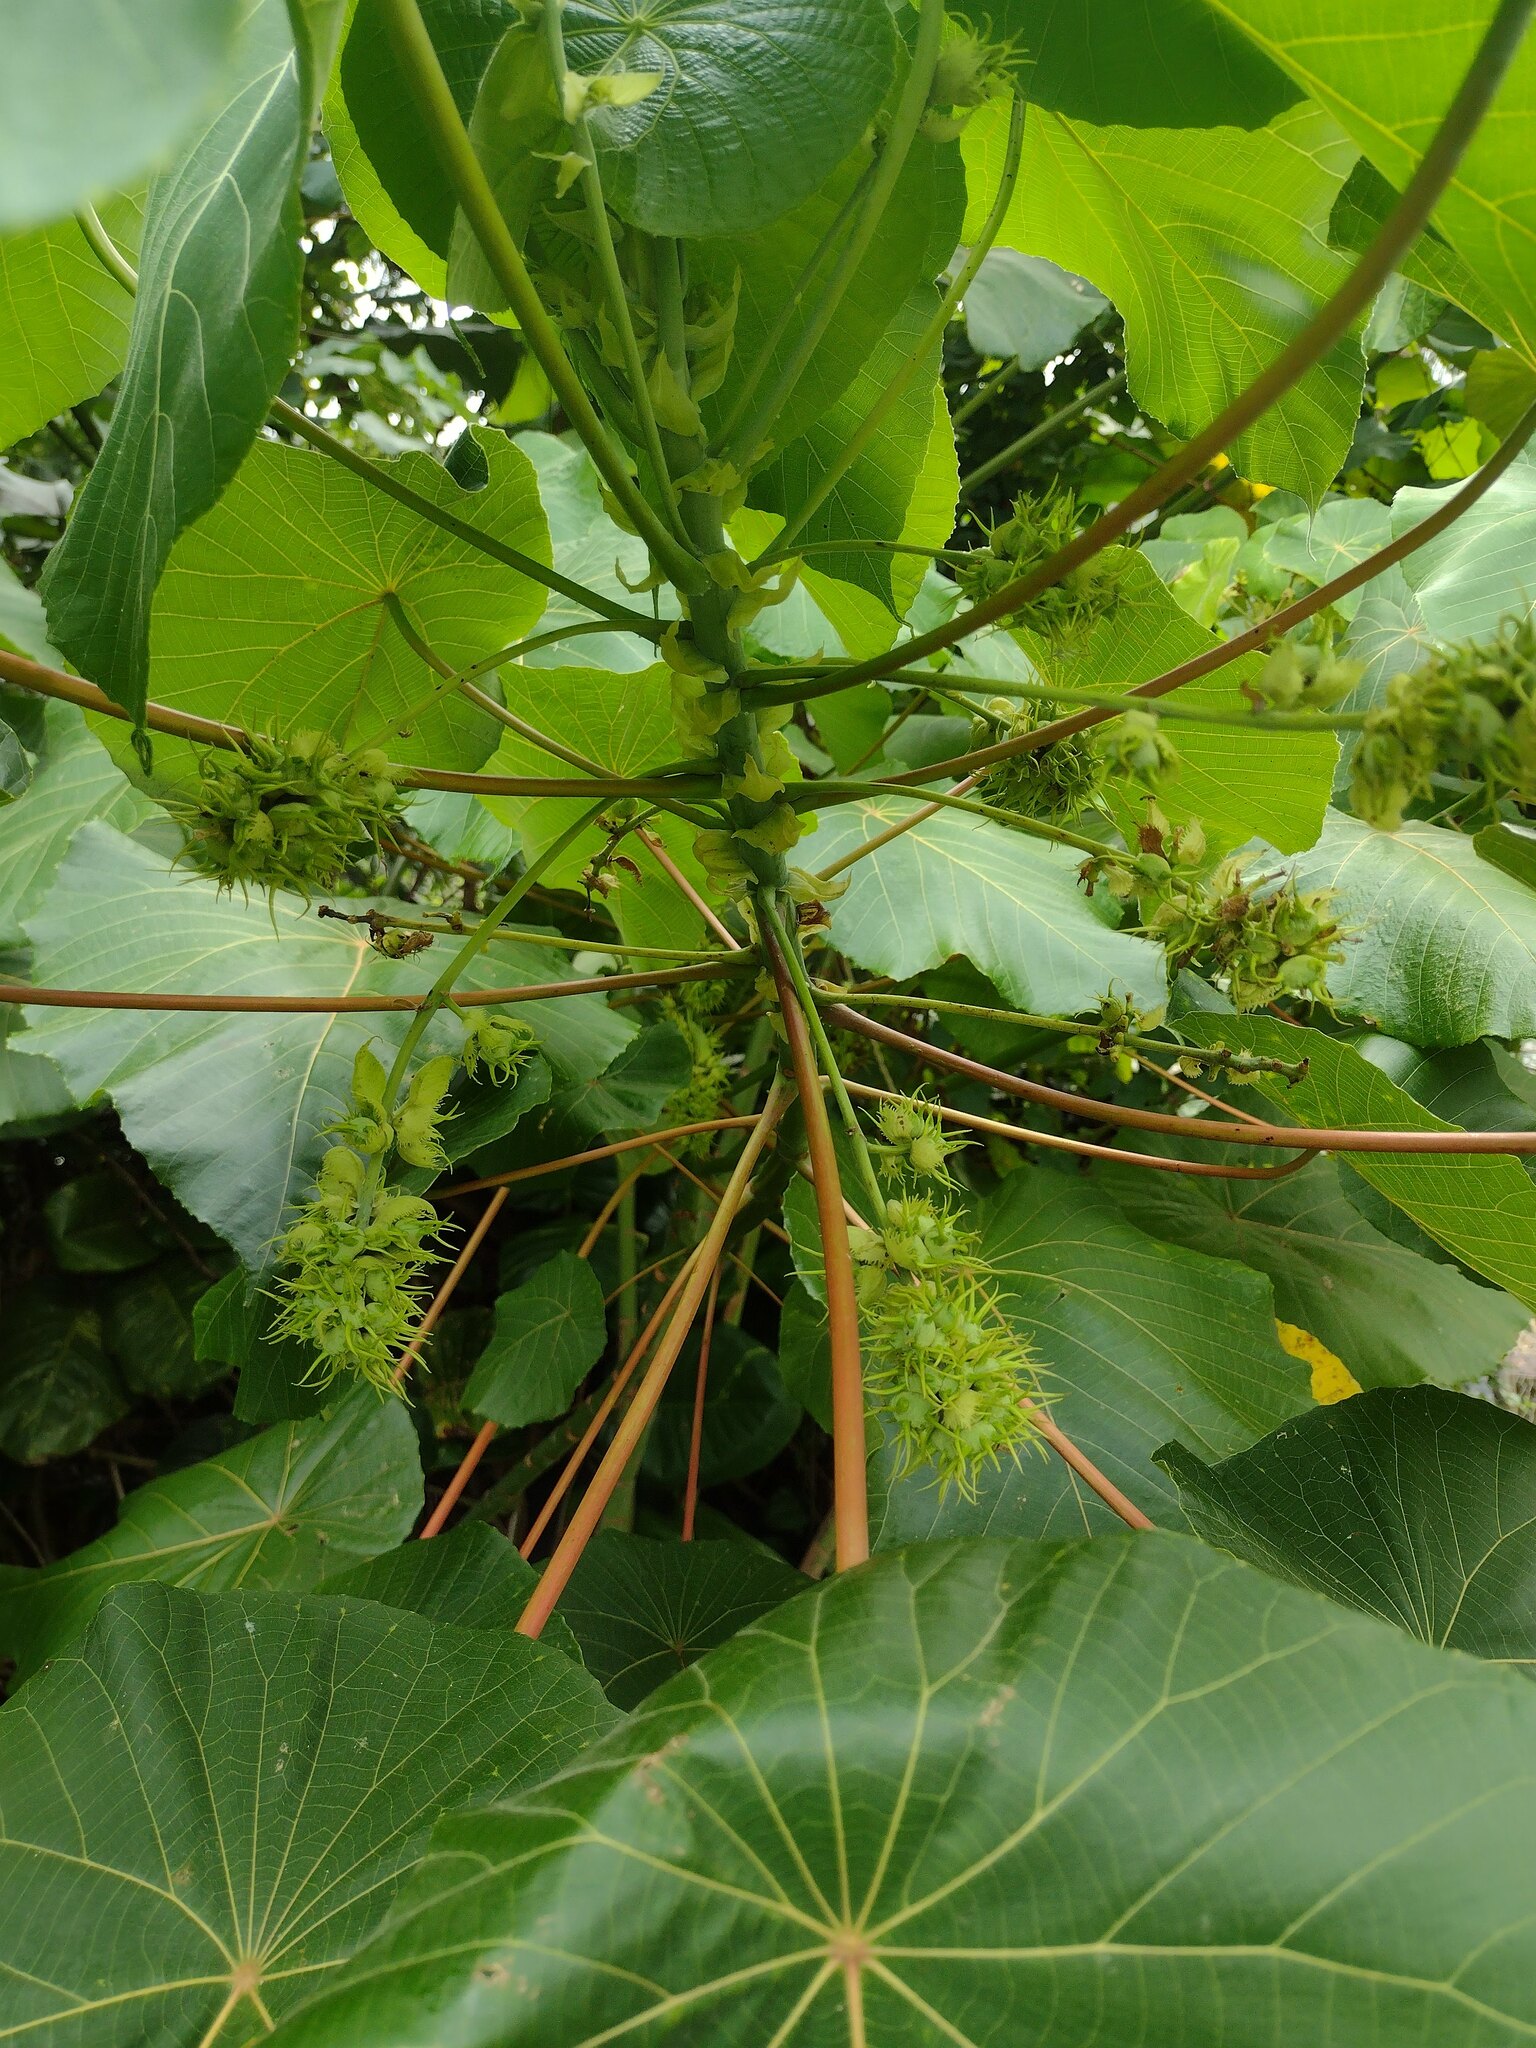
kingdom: Plantae
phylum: Tracheophyta
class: Magnoliopsida
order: Malpighiales
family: Euphorbiaceae
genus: Macaranga
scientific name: Macaranga tanarius
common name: Parasol leaf tree
